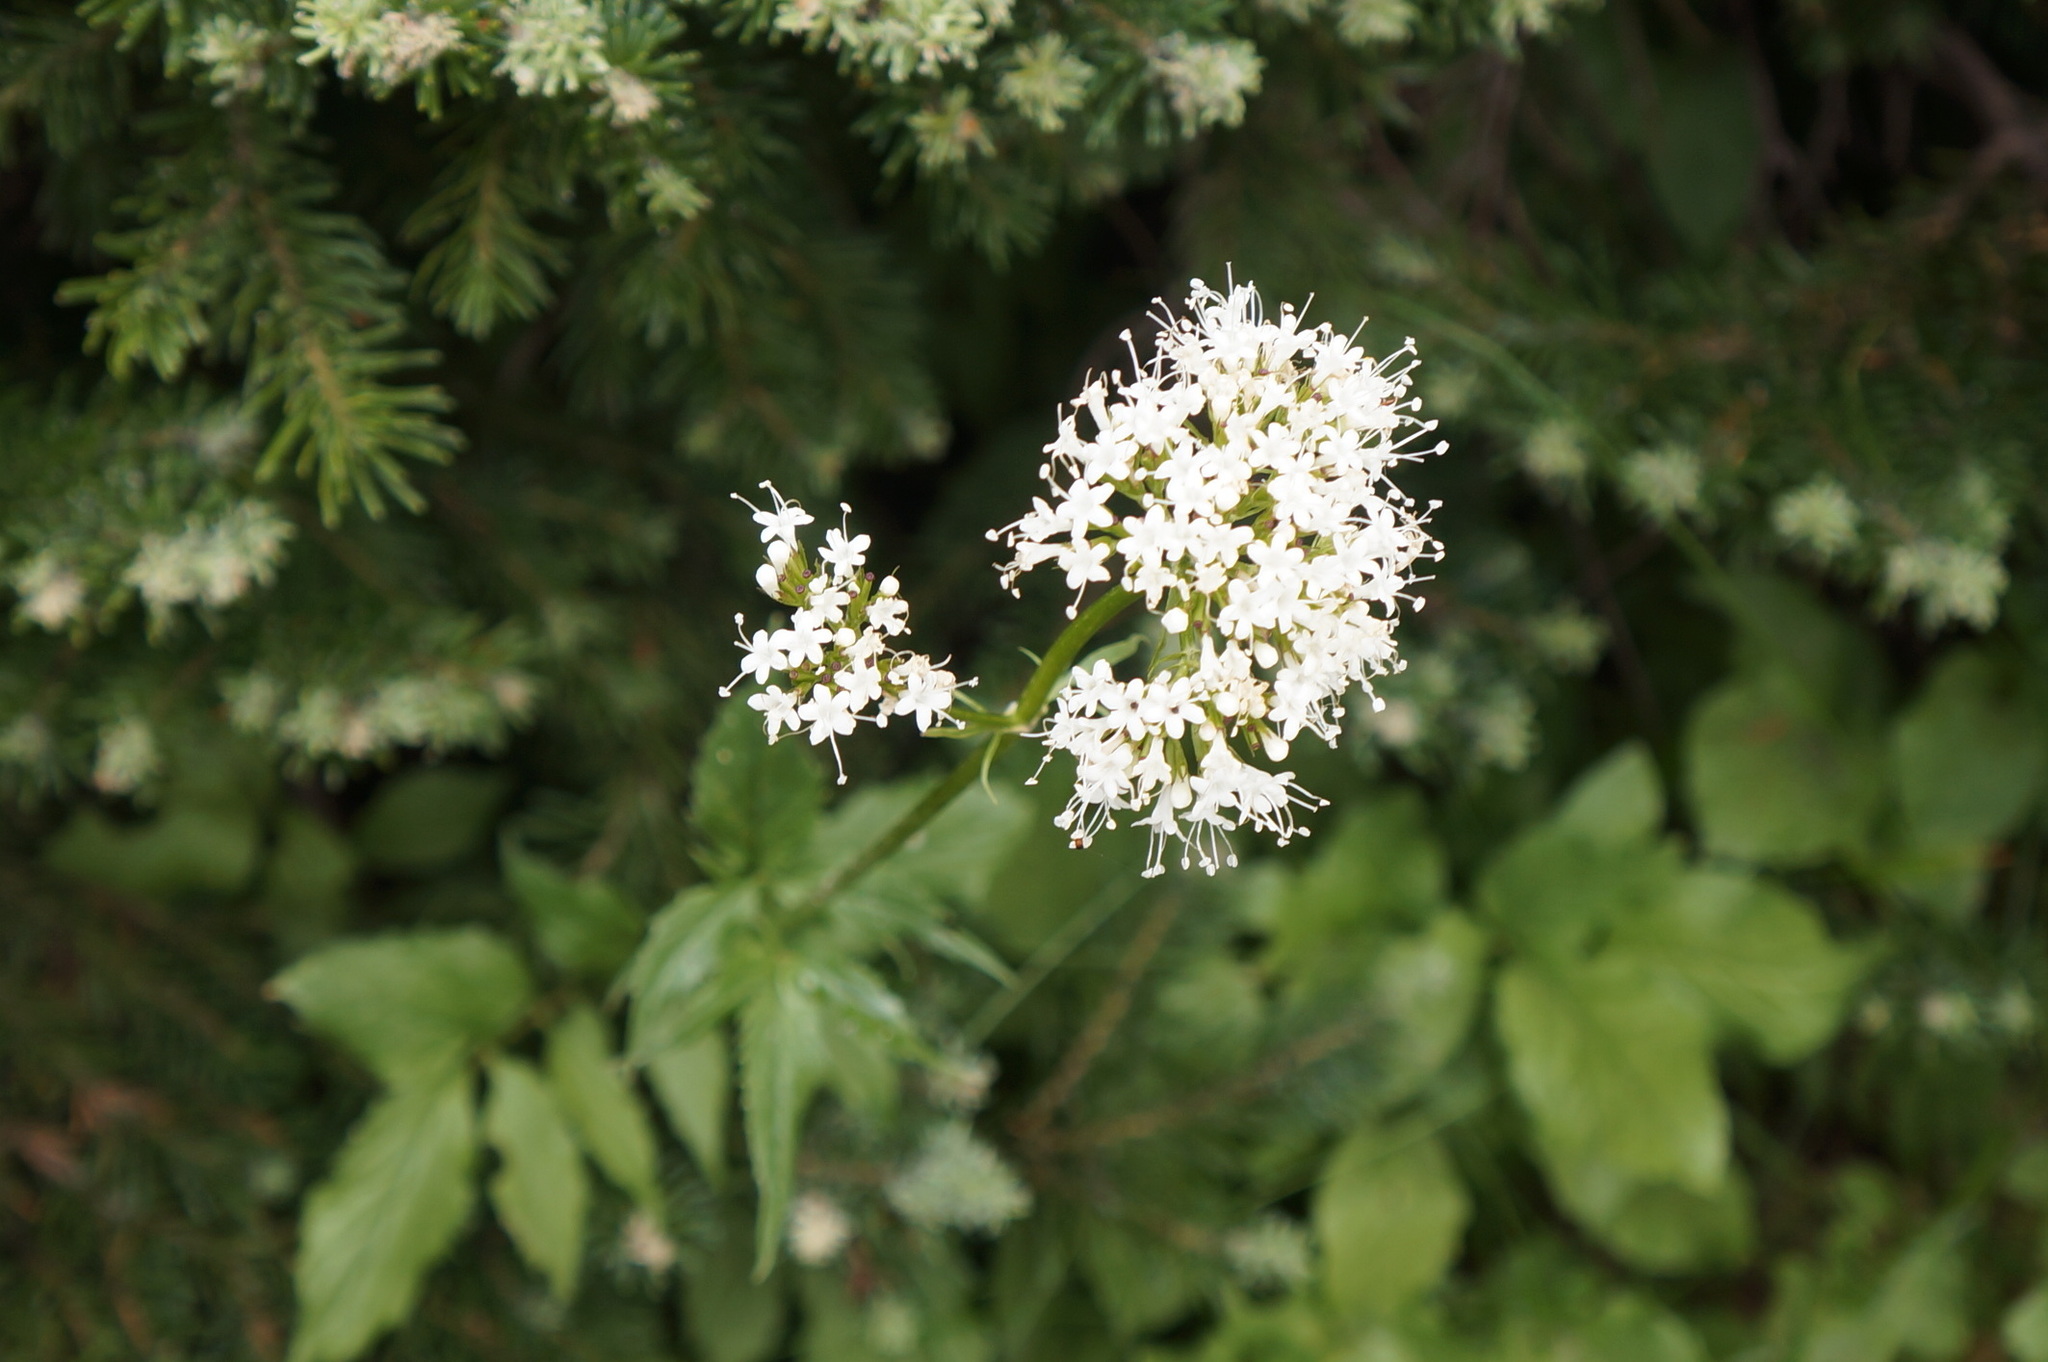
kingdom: Plantae
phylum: Tracheophyta
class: Magnoliopsida
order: Dipsacales
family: Caprifoliaceae
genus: Valeriana
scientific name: Valeriana sitchensis
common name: Pacific valerian
